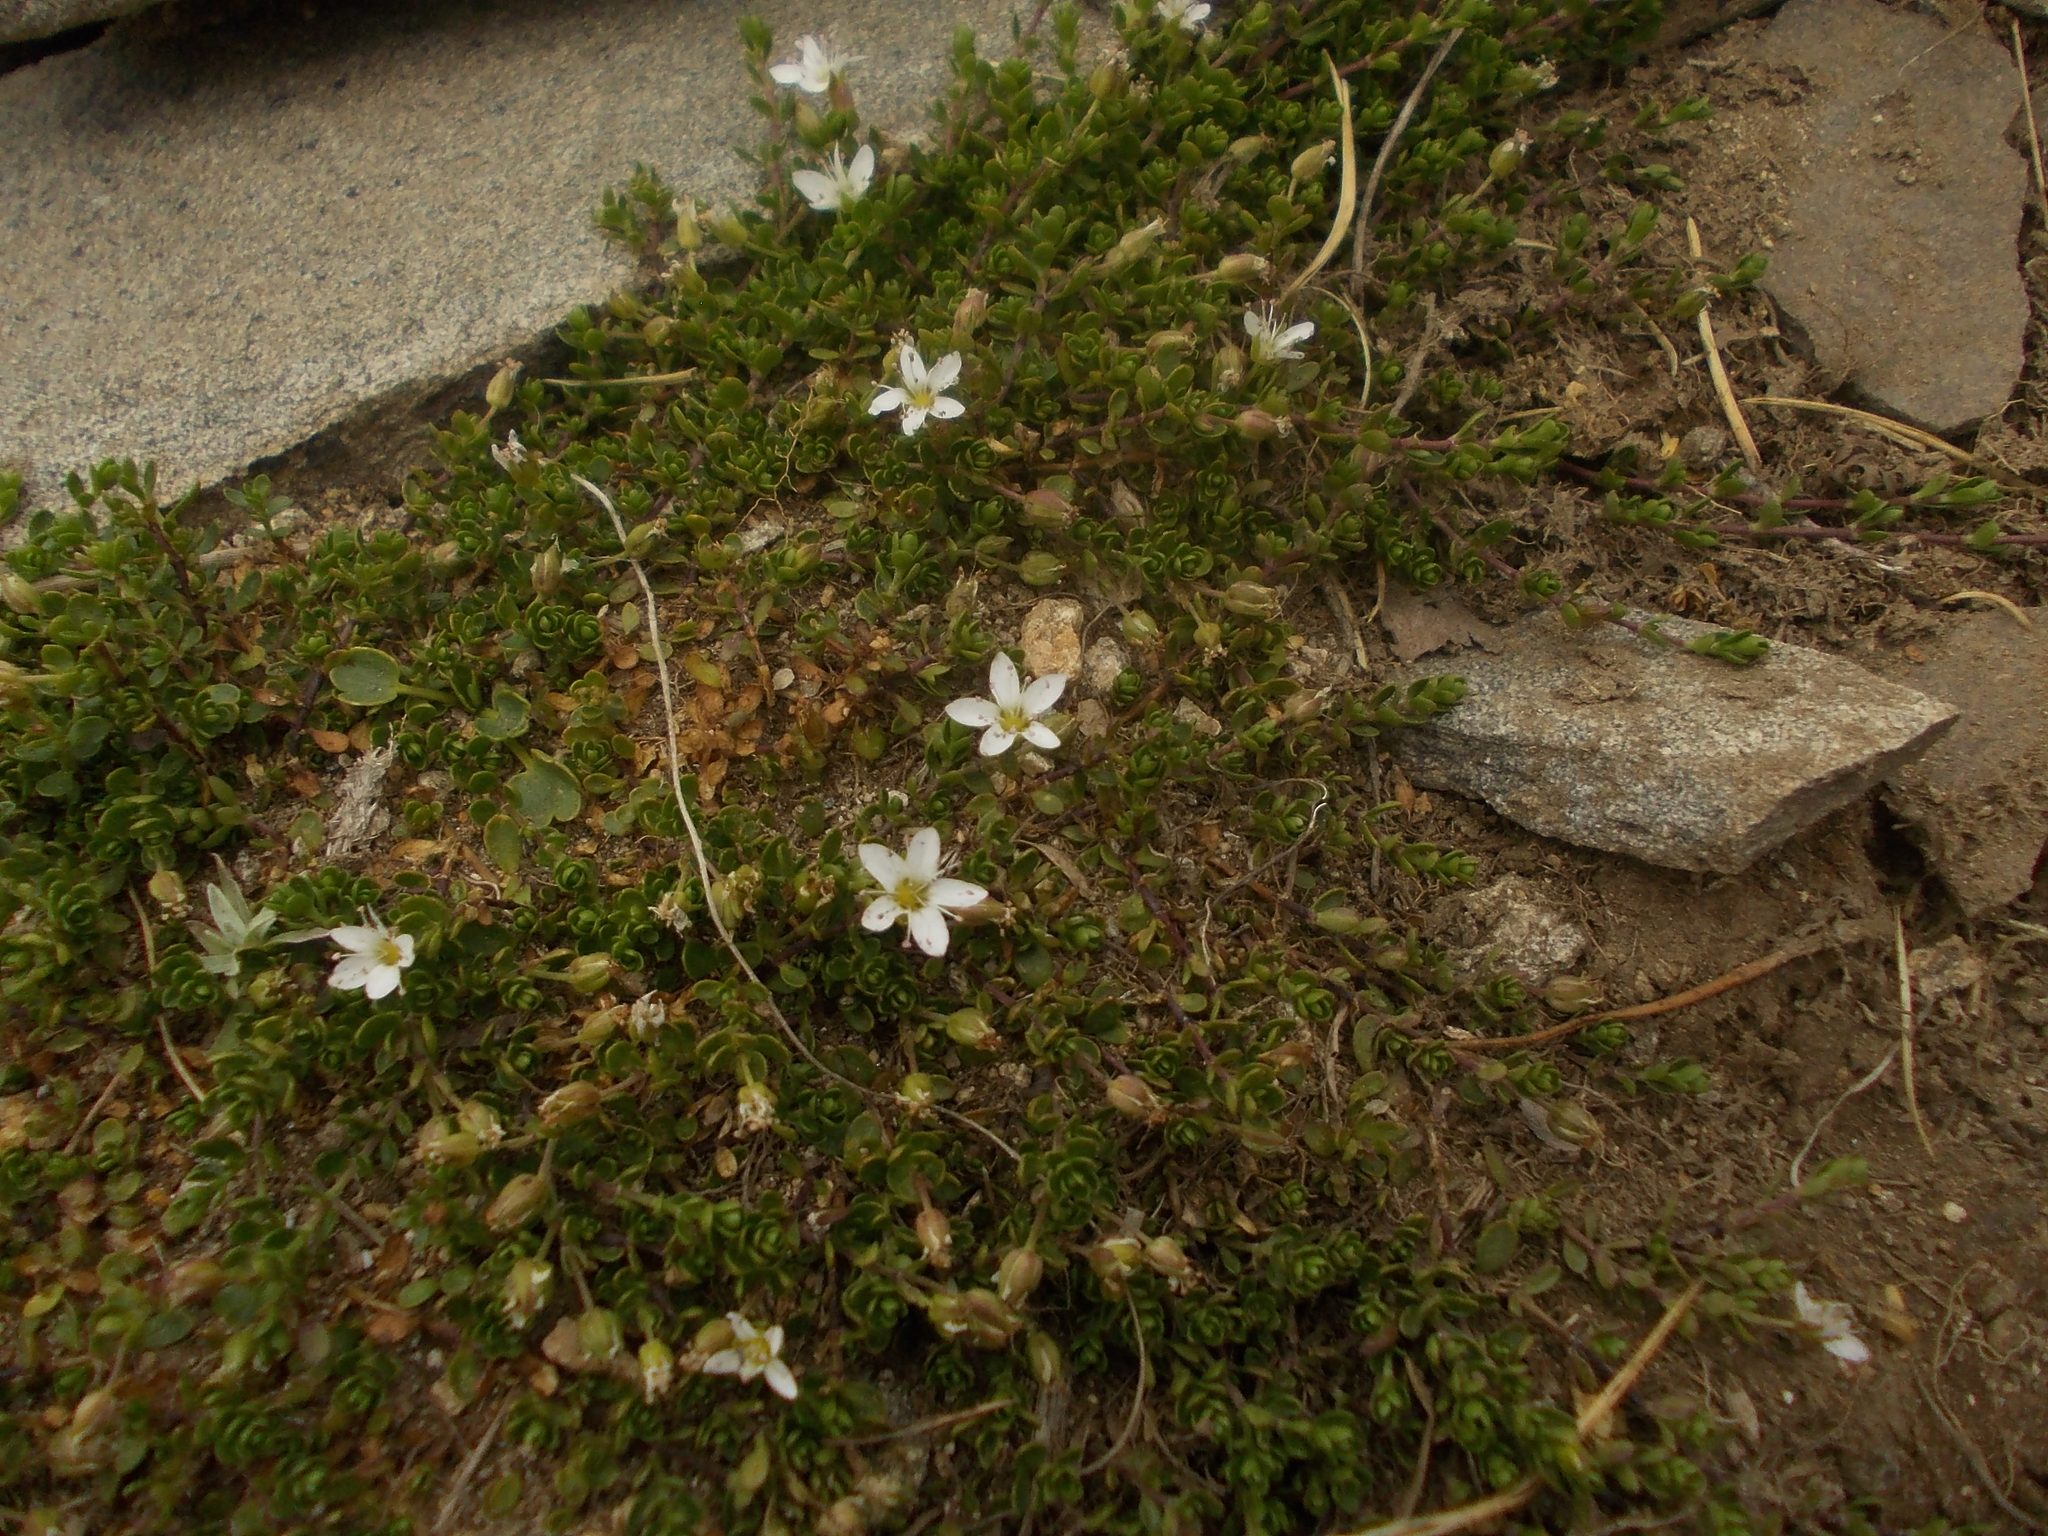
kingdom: Plantae
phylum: Tracheophyta
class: Magnoliopsida
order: Caryophyllales
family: Caryophyllaceae
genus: Arenaria
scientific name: Arenaria biflora
